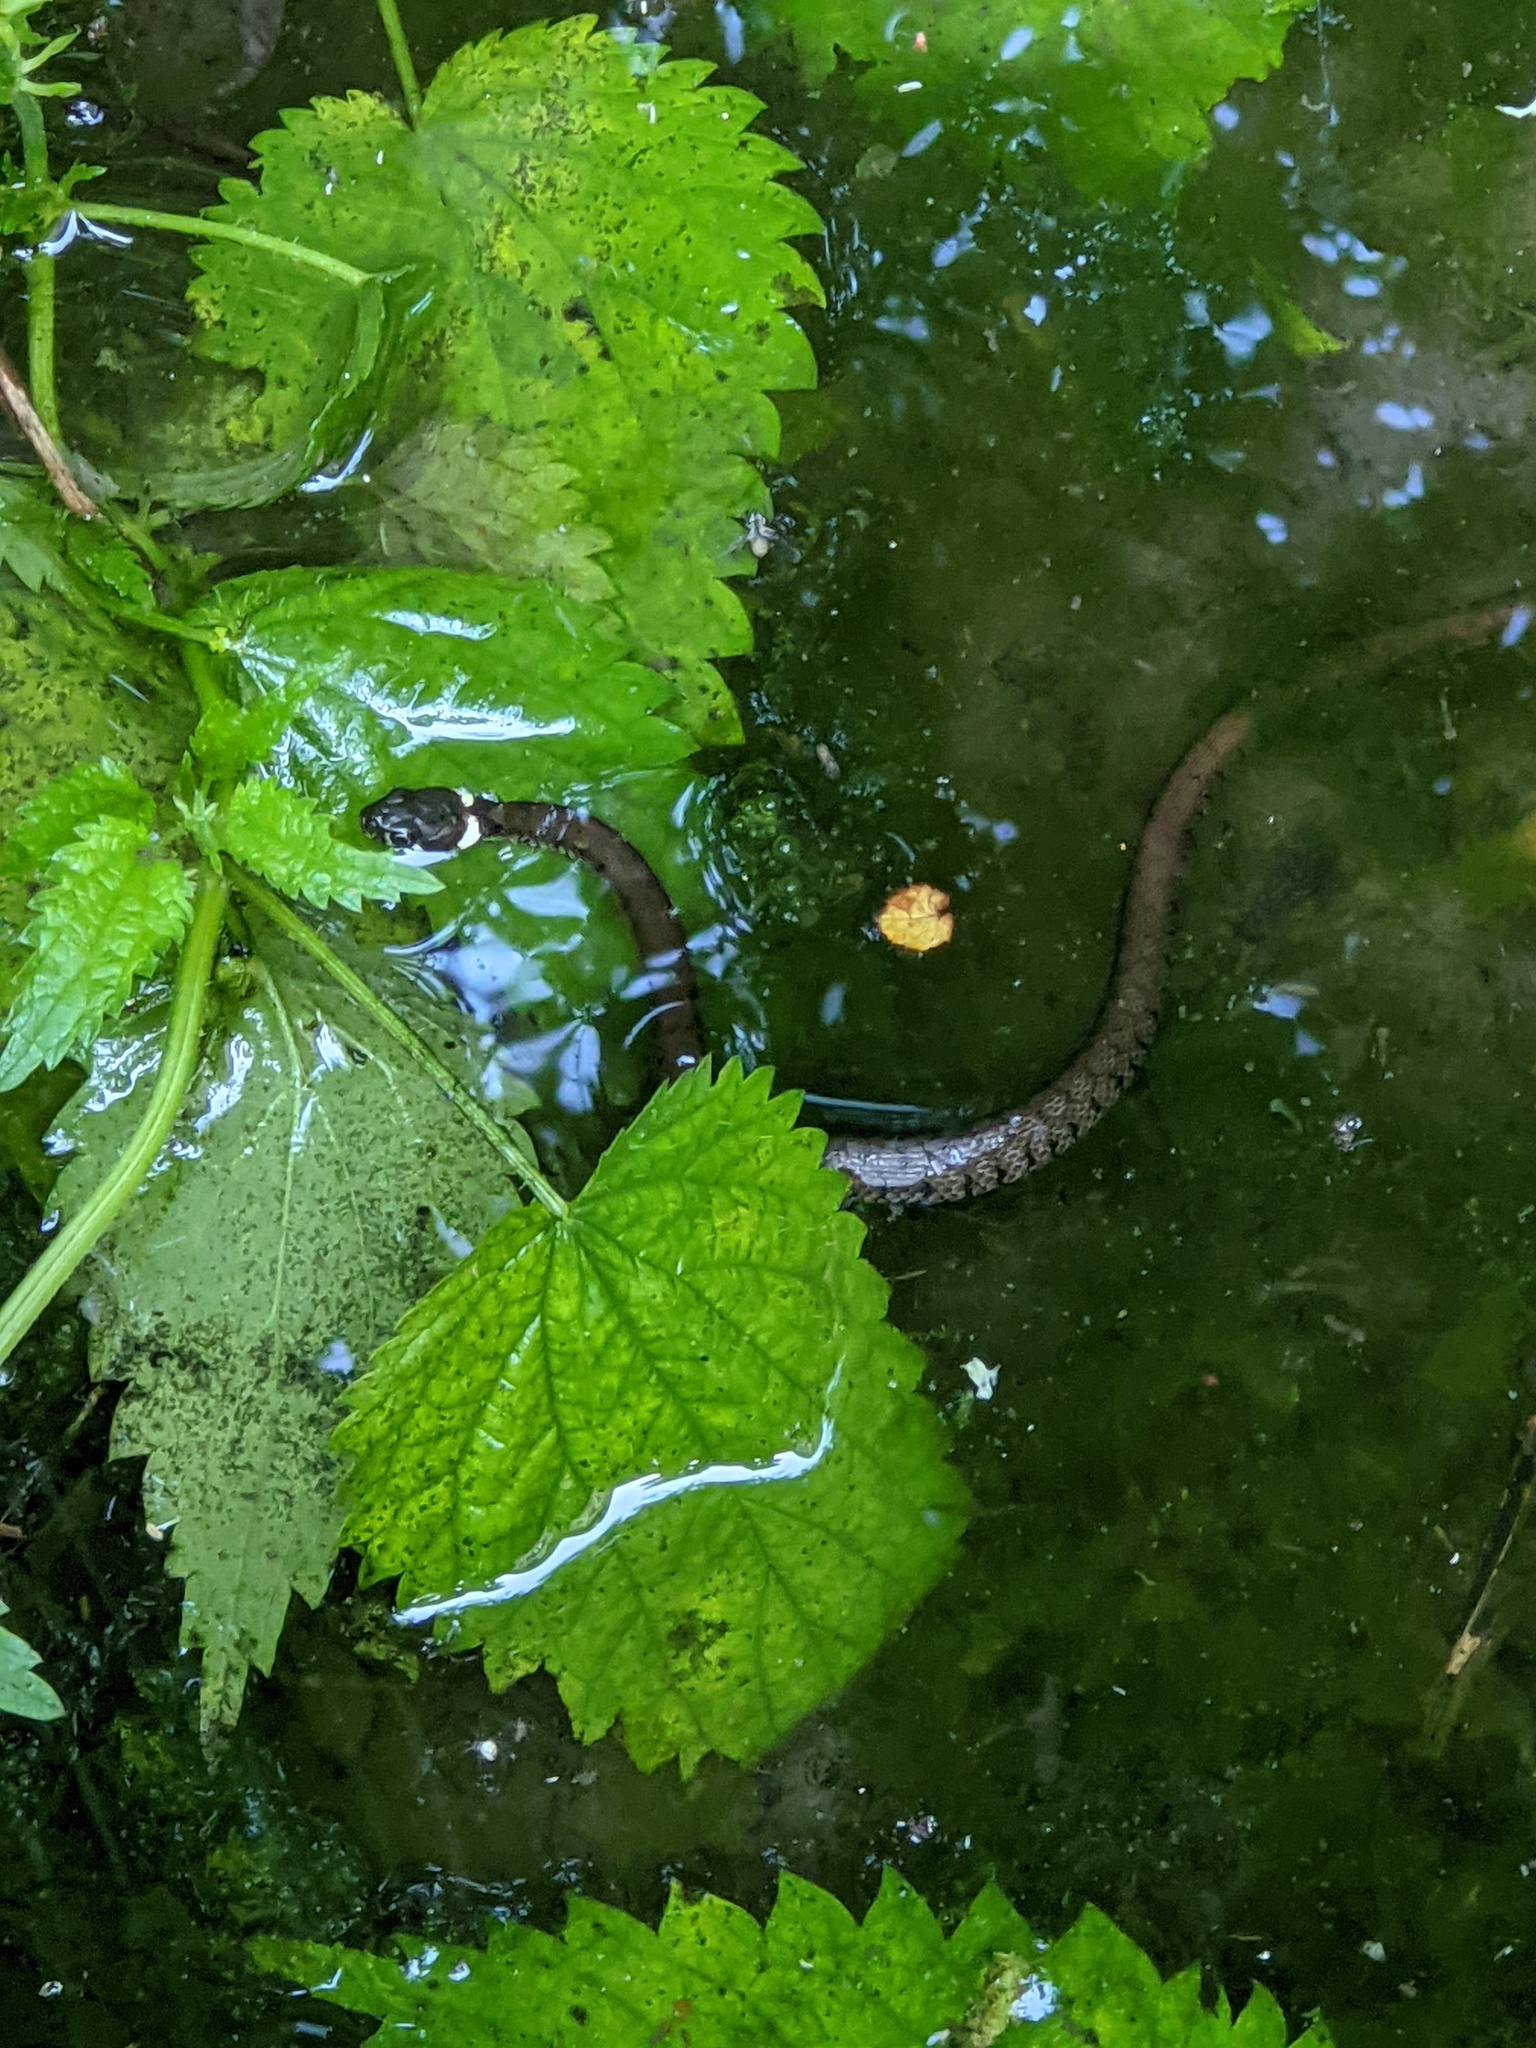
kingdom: Animalia
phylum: Chordata
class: Squamata
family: Colubridae
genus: Natrix
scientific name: Natrix helvetica
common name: Banded grass snake
